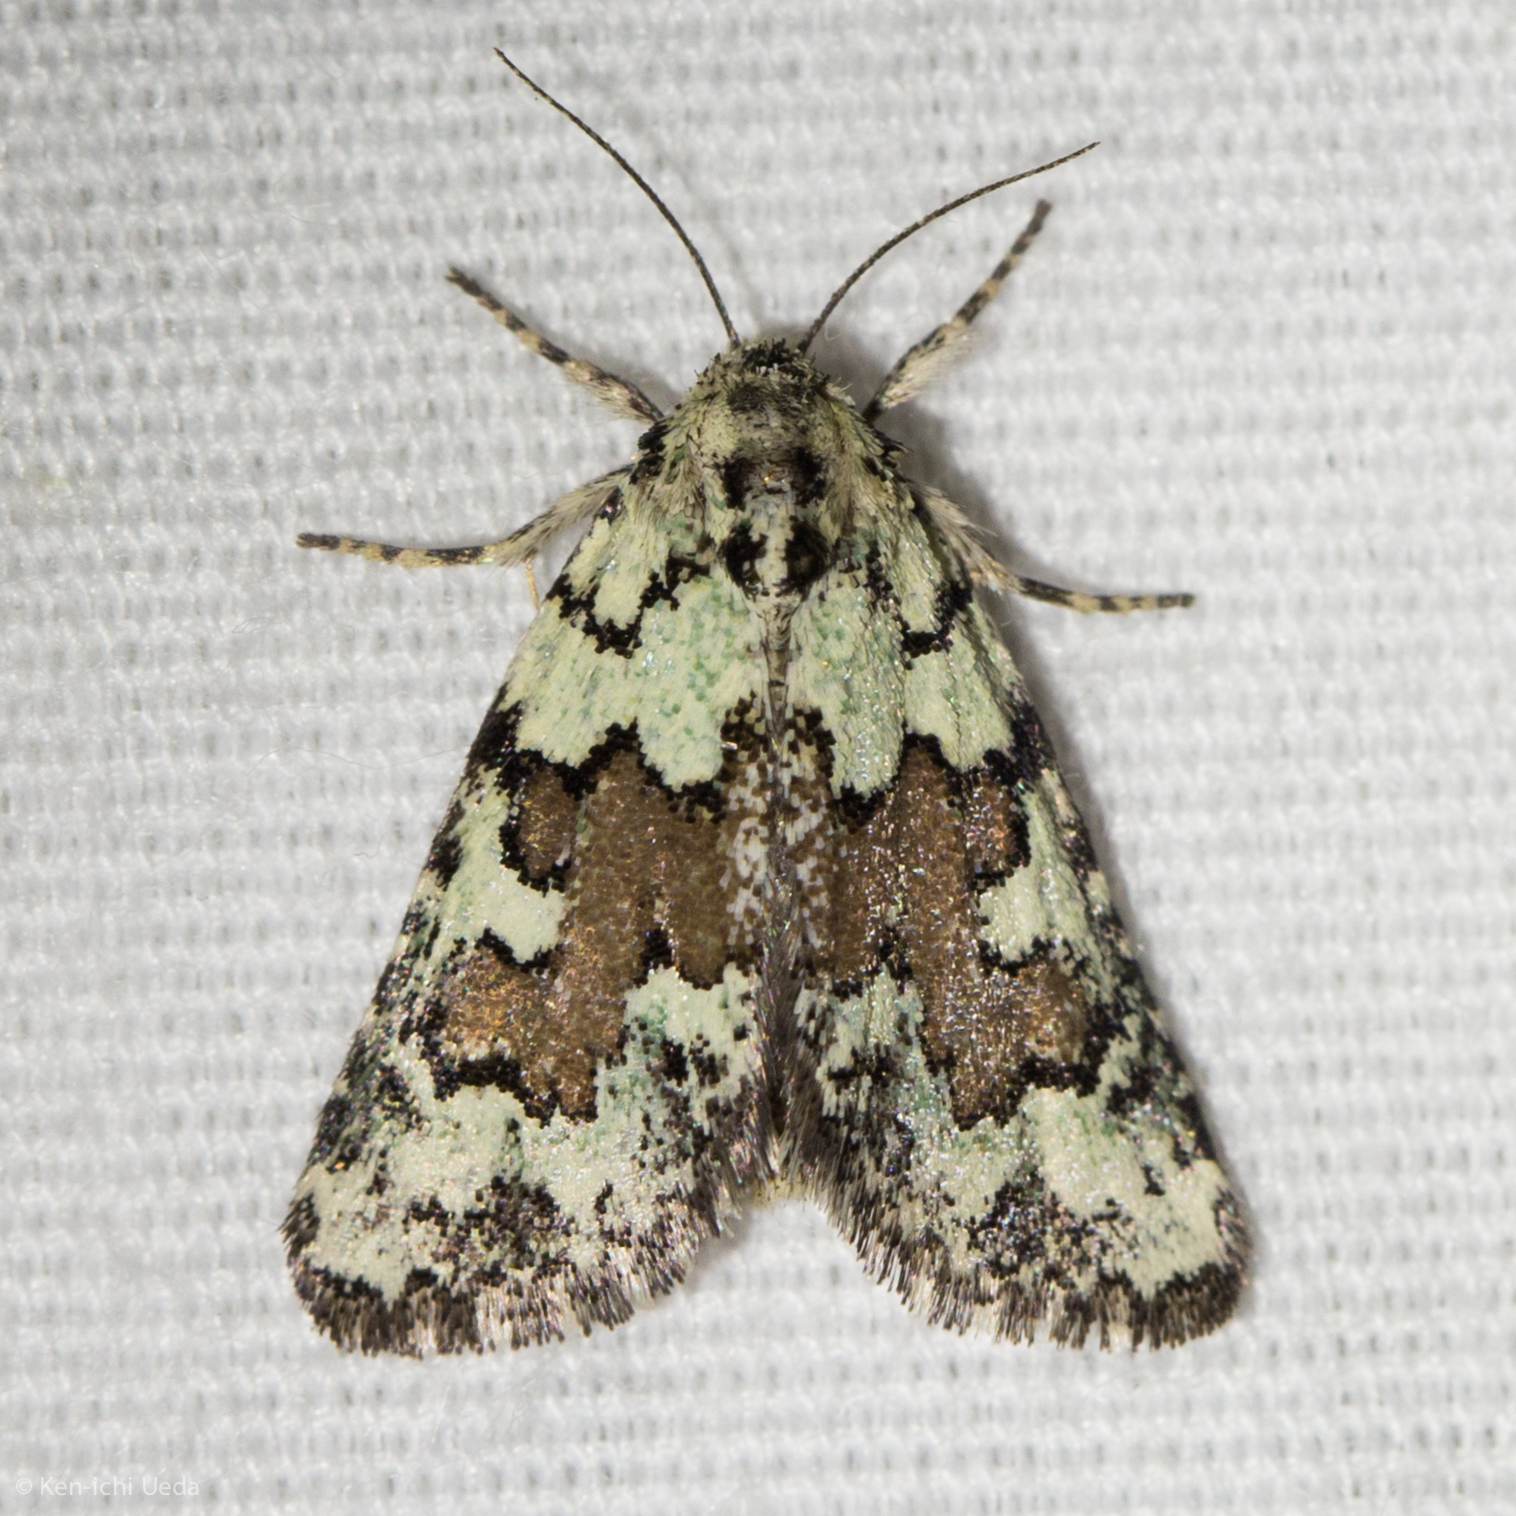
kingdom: Animalia
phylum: Arthropoda
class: Insecta
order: Lepidoptera
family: Noctuidae
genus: Cryphia
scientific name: Cryphia sarepta
